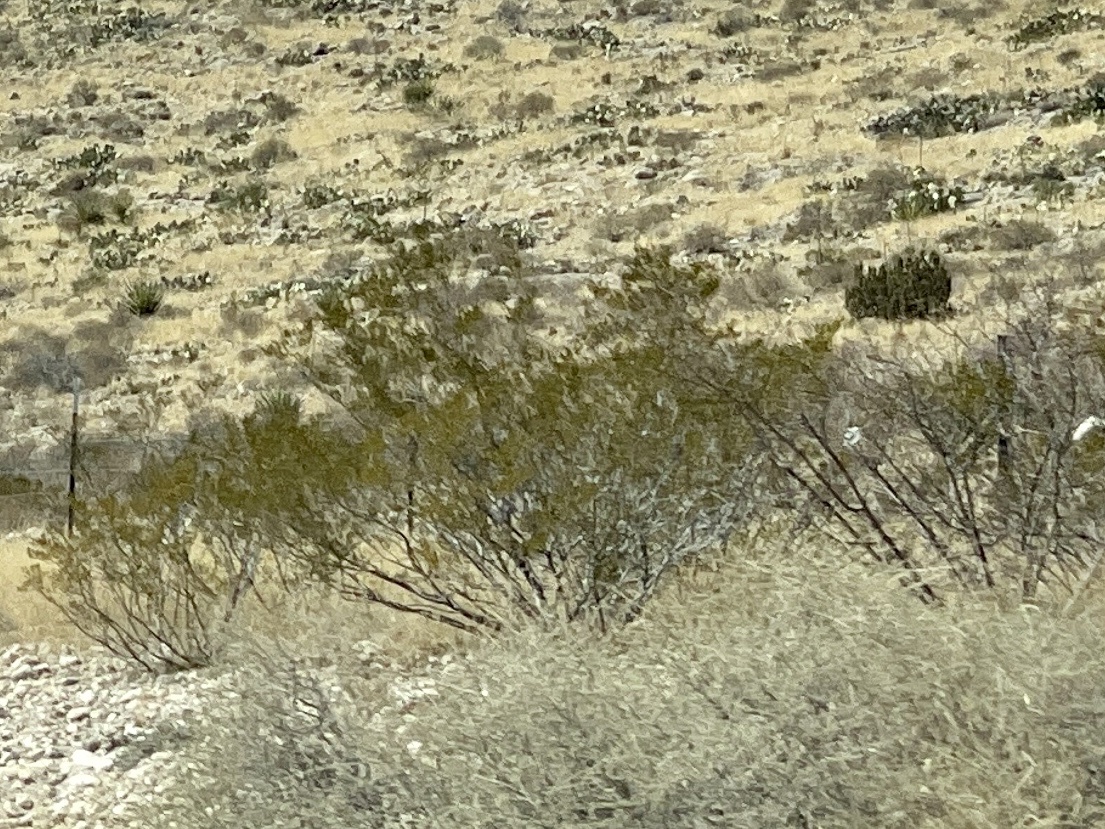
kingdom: Plantae
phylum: Tracheophyta
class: Magnoliopsida
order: Zygophyllales
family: Zygophyllaceae
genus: Larrea
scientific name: Larrea tridentata
